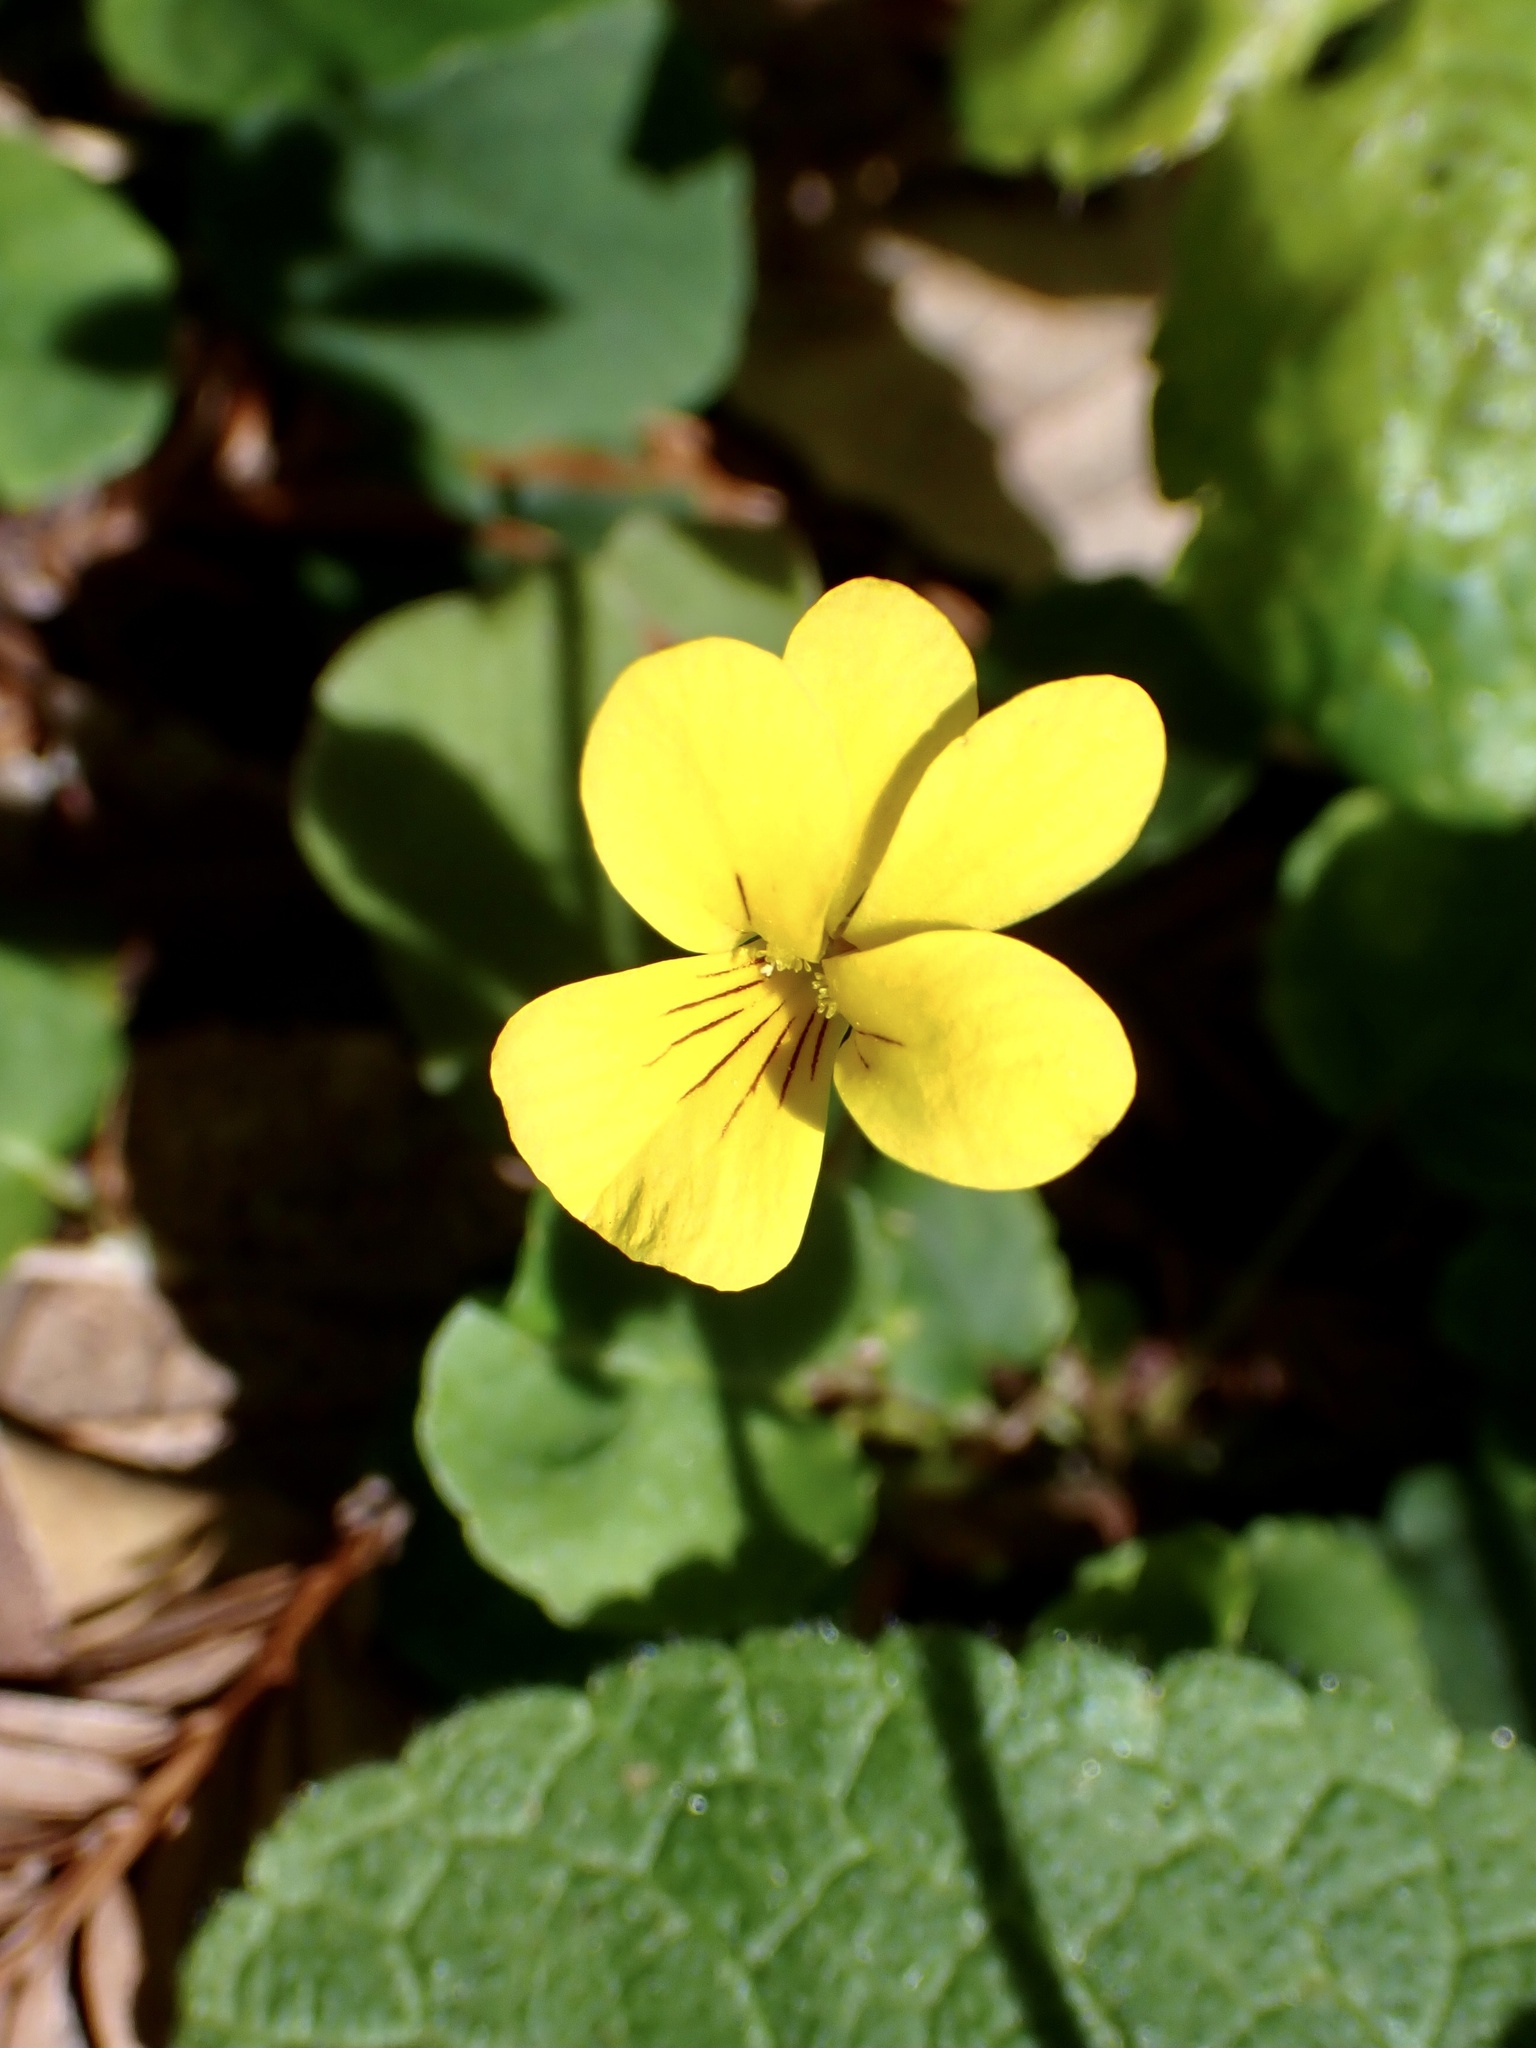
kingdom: Plantae
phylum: Tracheophyta
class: Magnoliopsida
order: Malpighiales
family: Violaceae
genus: Viola
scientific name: Viola sempervirens
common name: Evergreen violet
